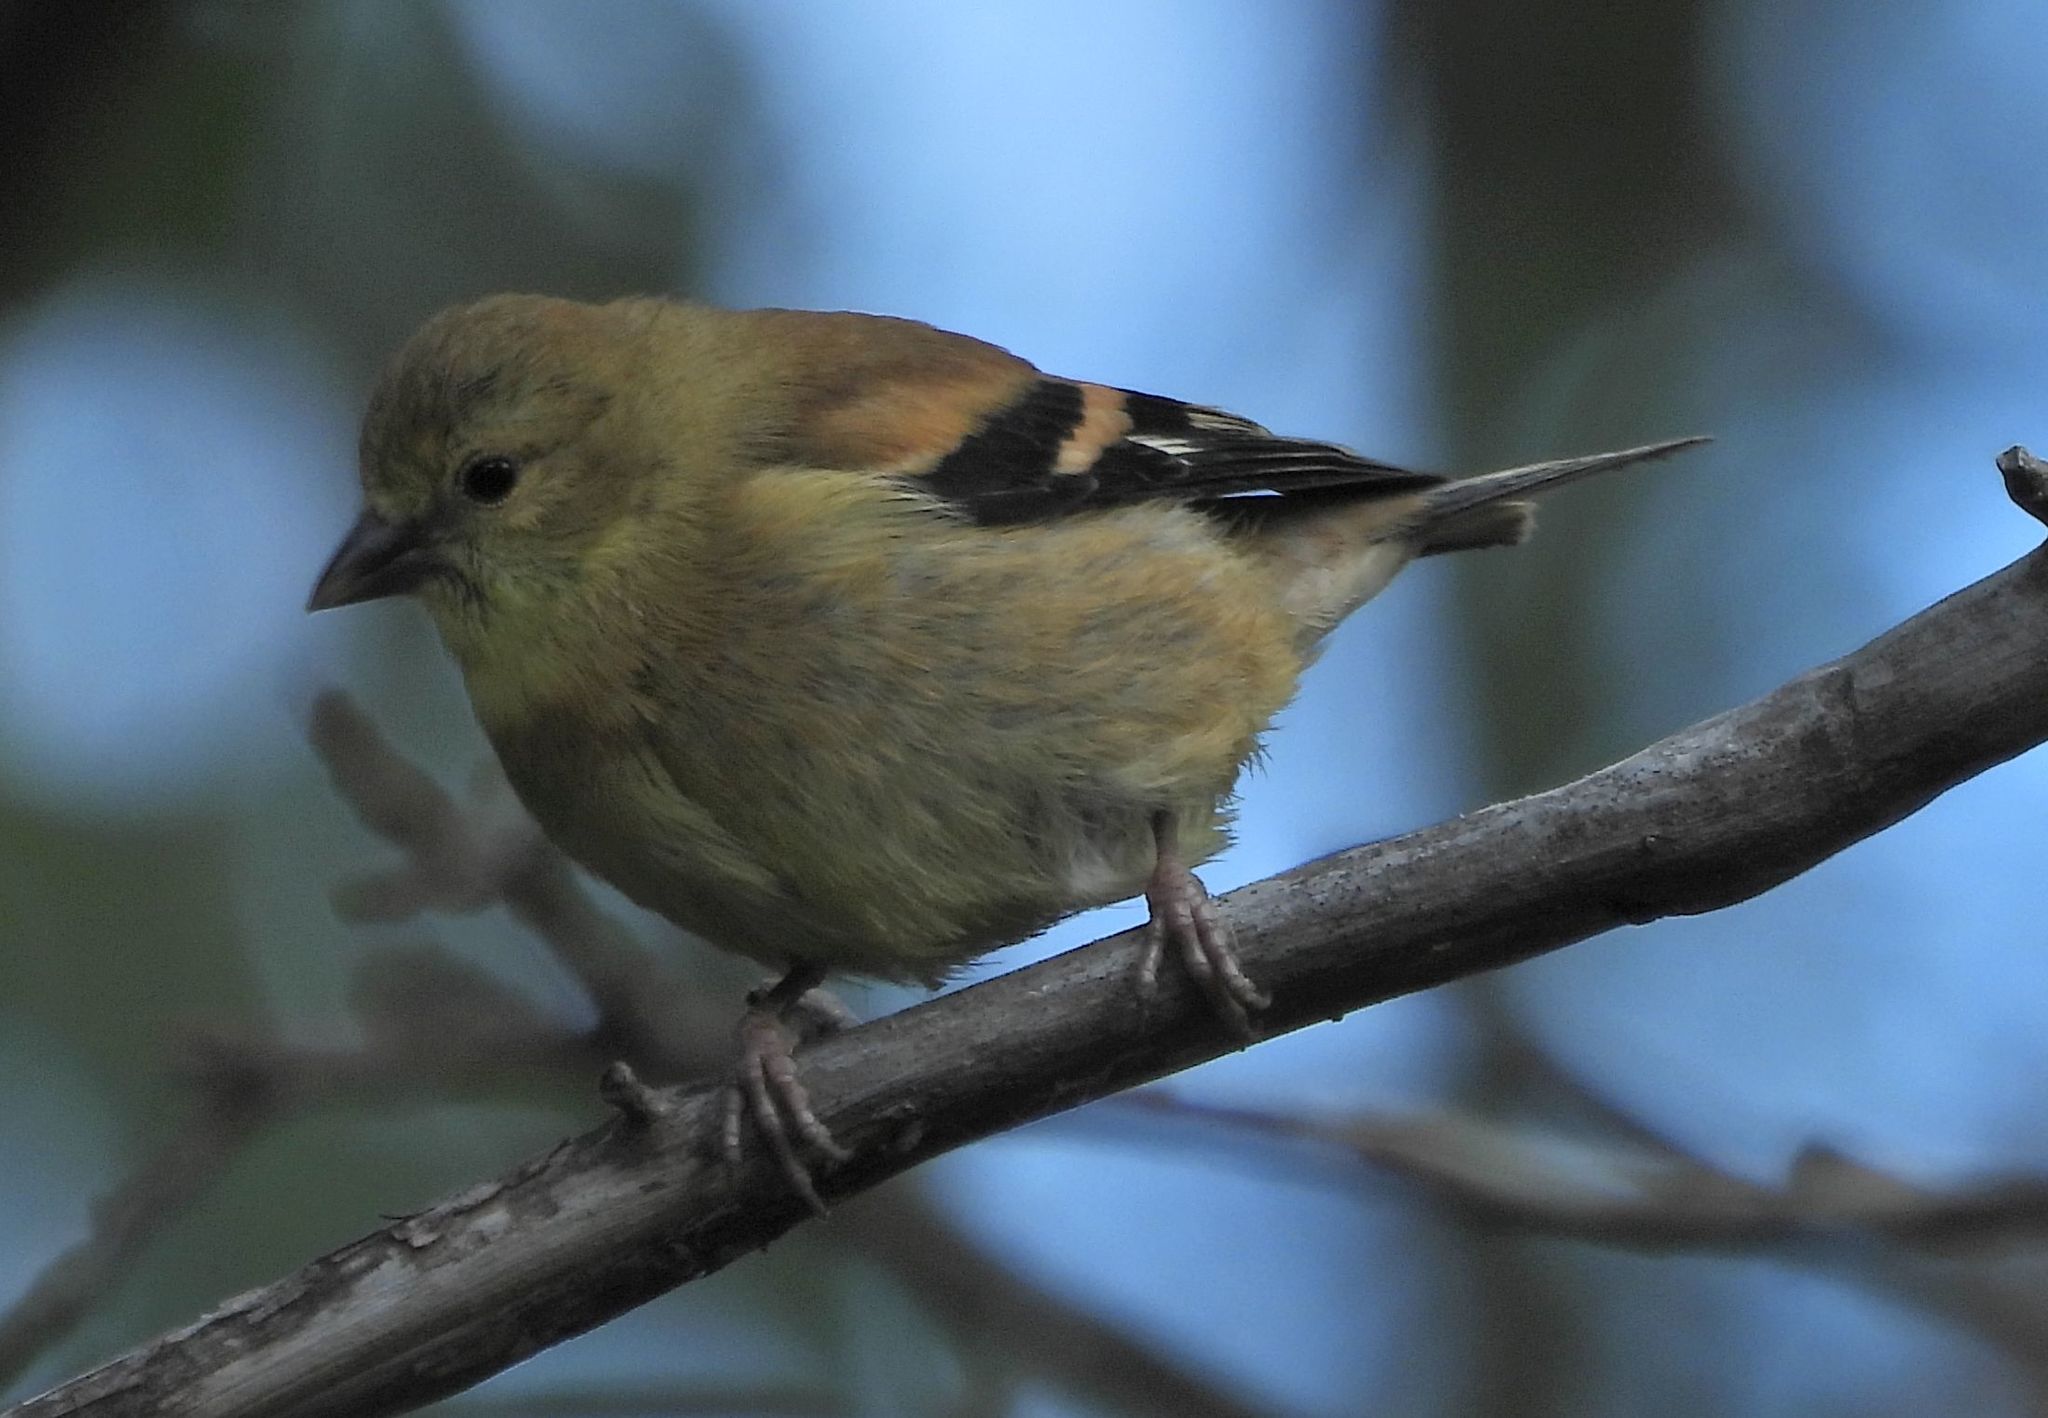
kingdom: Animalia
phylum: Chordata
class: Aves
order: Passeriformes
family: Fringillidae
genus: Spinus
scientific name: Spinus tristis
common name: American goldfinch
